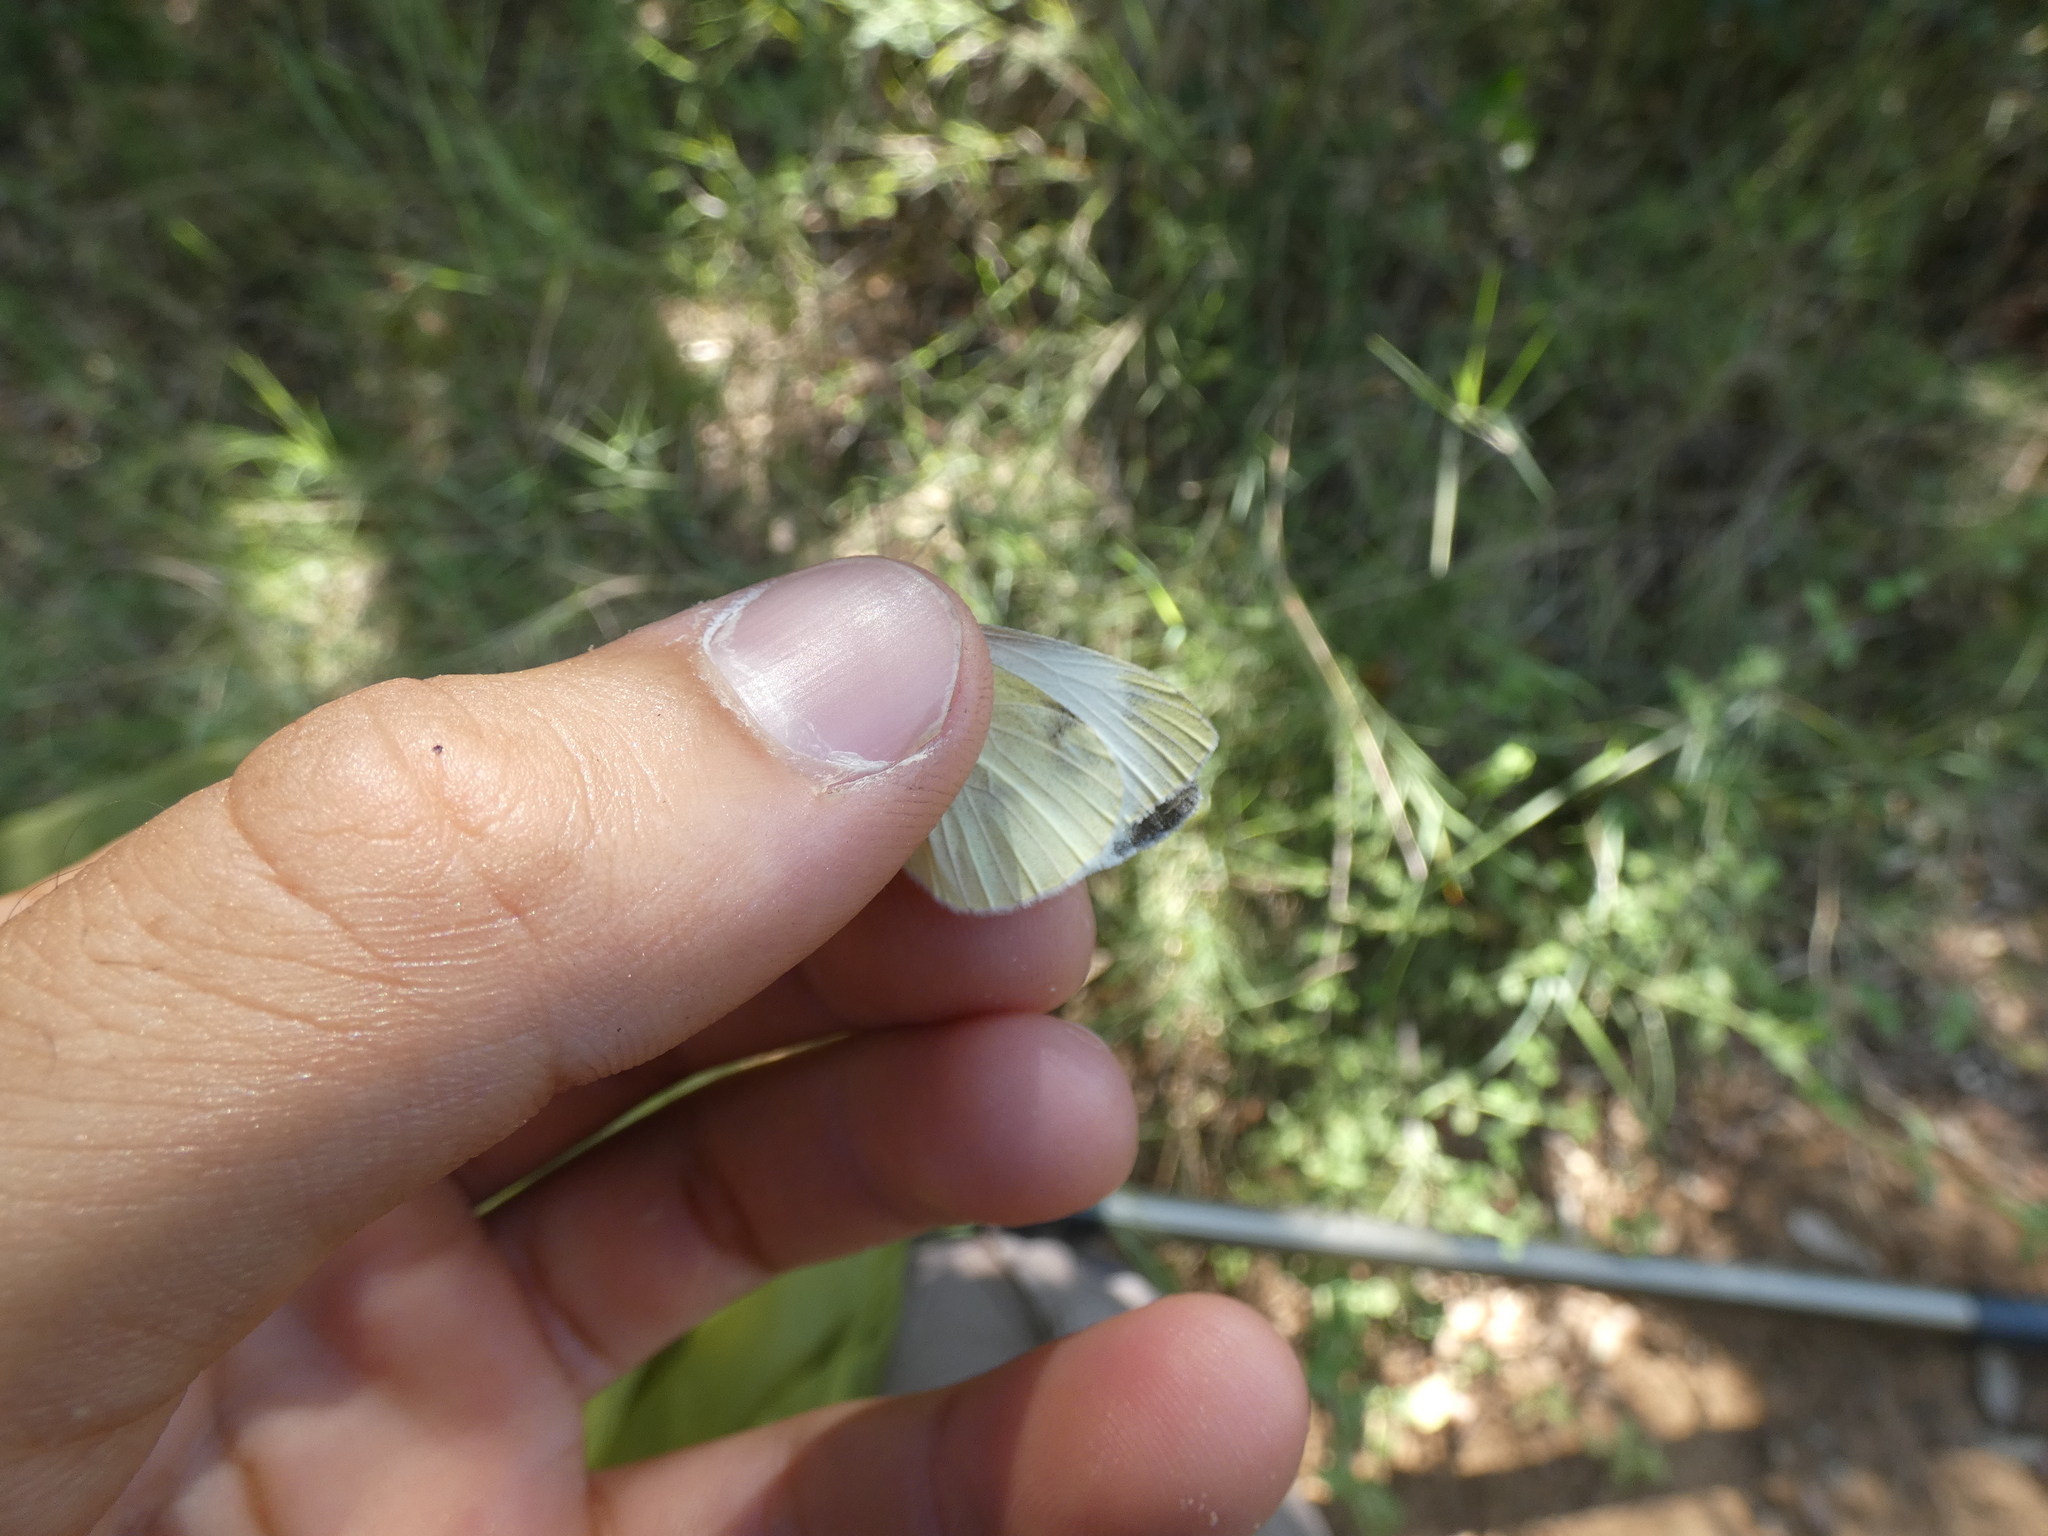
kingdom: Animalia
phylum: Arthropoda
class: Insecta
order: Lepidoptera
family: Pieridae
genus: Pieris
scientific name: Pieris mannii
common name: Southern small white
